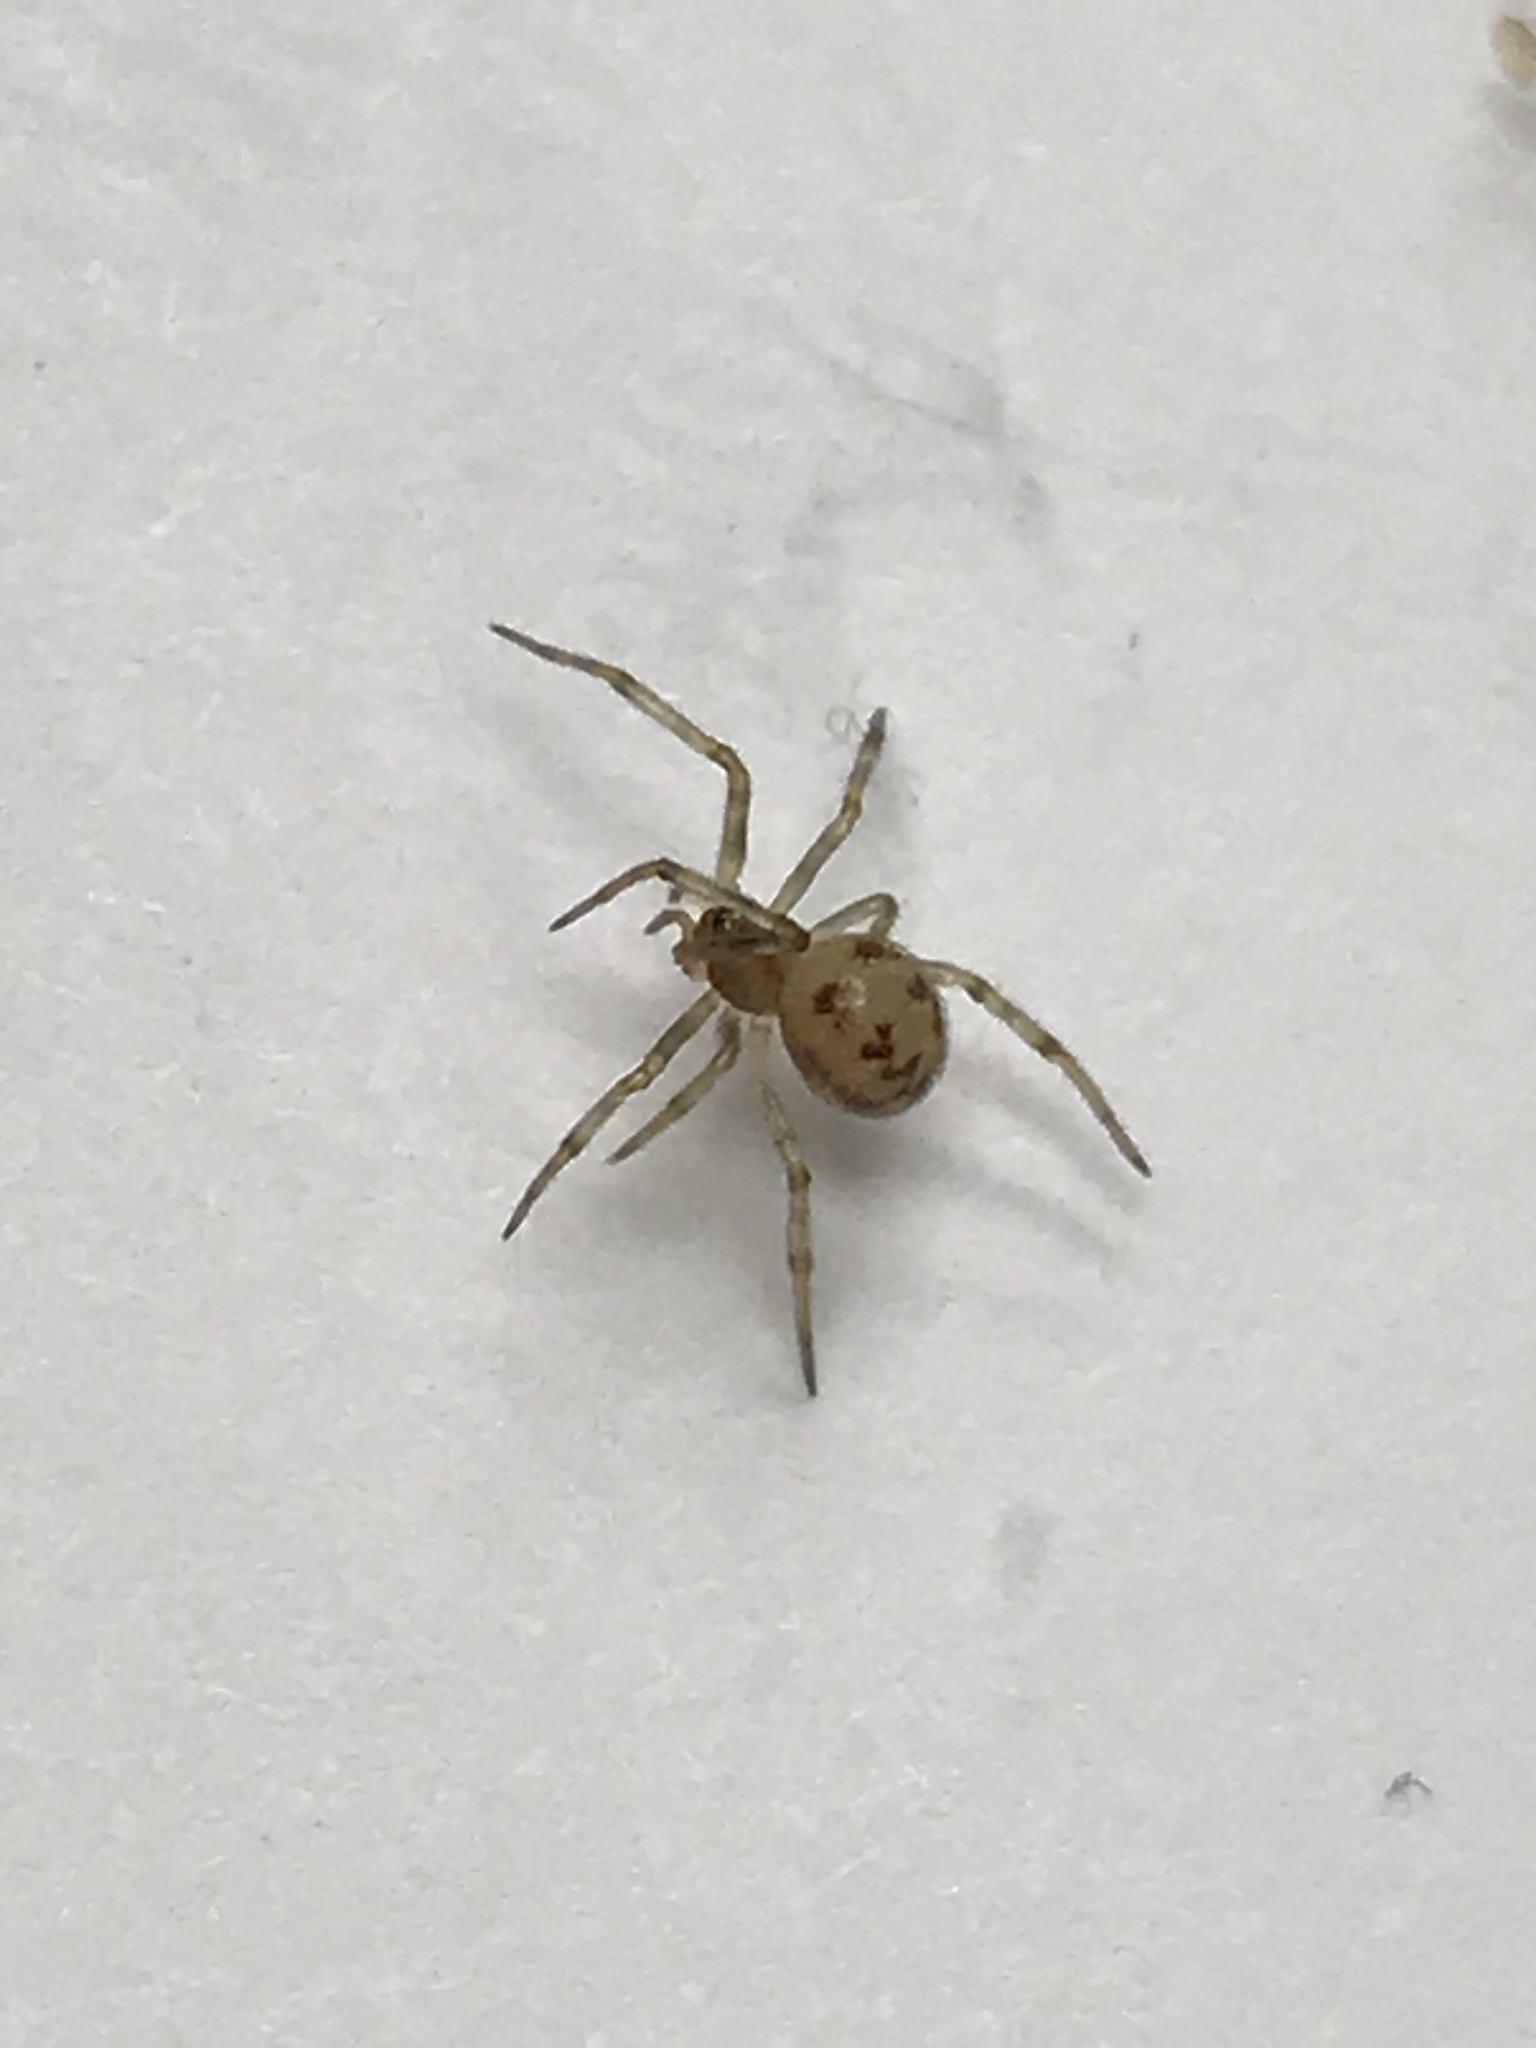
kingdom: Animalia
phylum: Arthropoda
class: Arachnida
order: Araneae
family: Theridiidae
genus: Steatoda
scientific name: Steatoda triangulosa
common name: Triangulate bud spider
